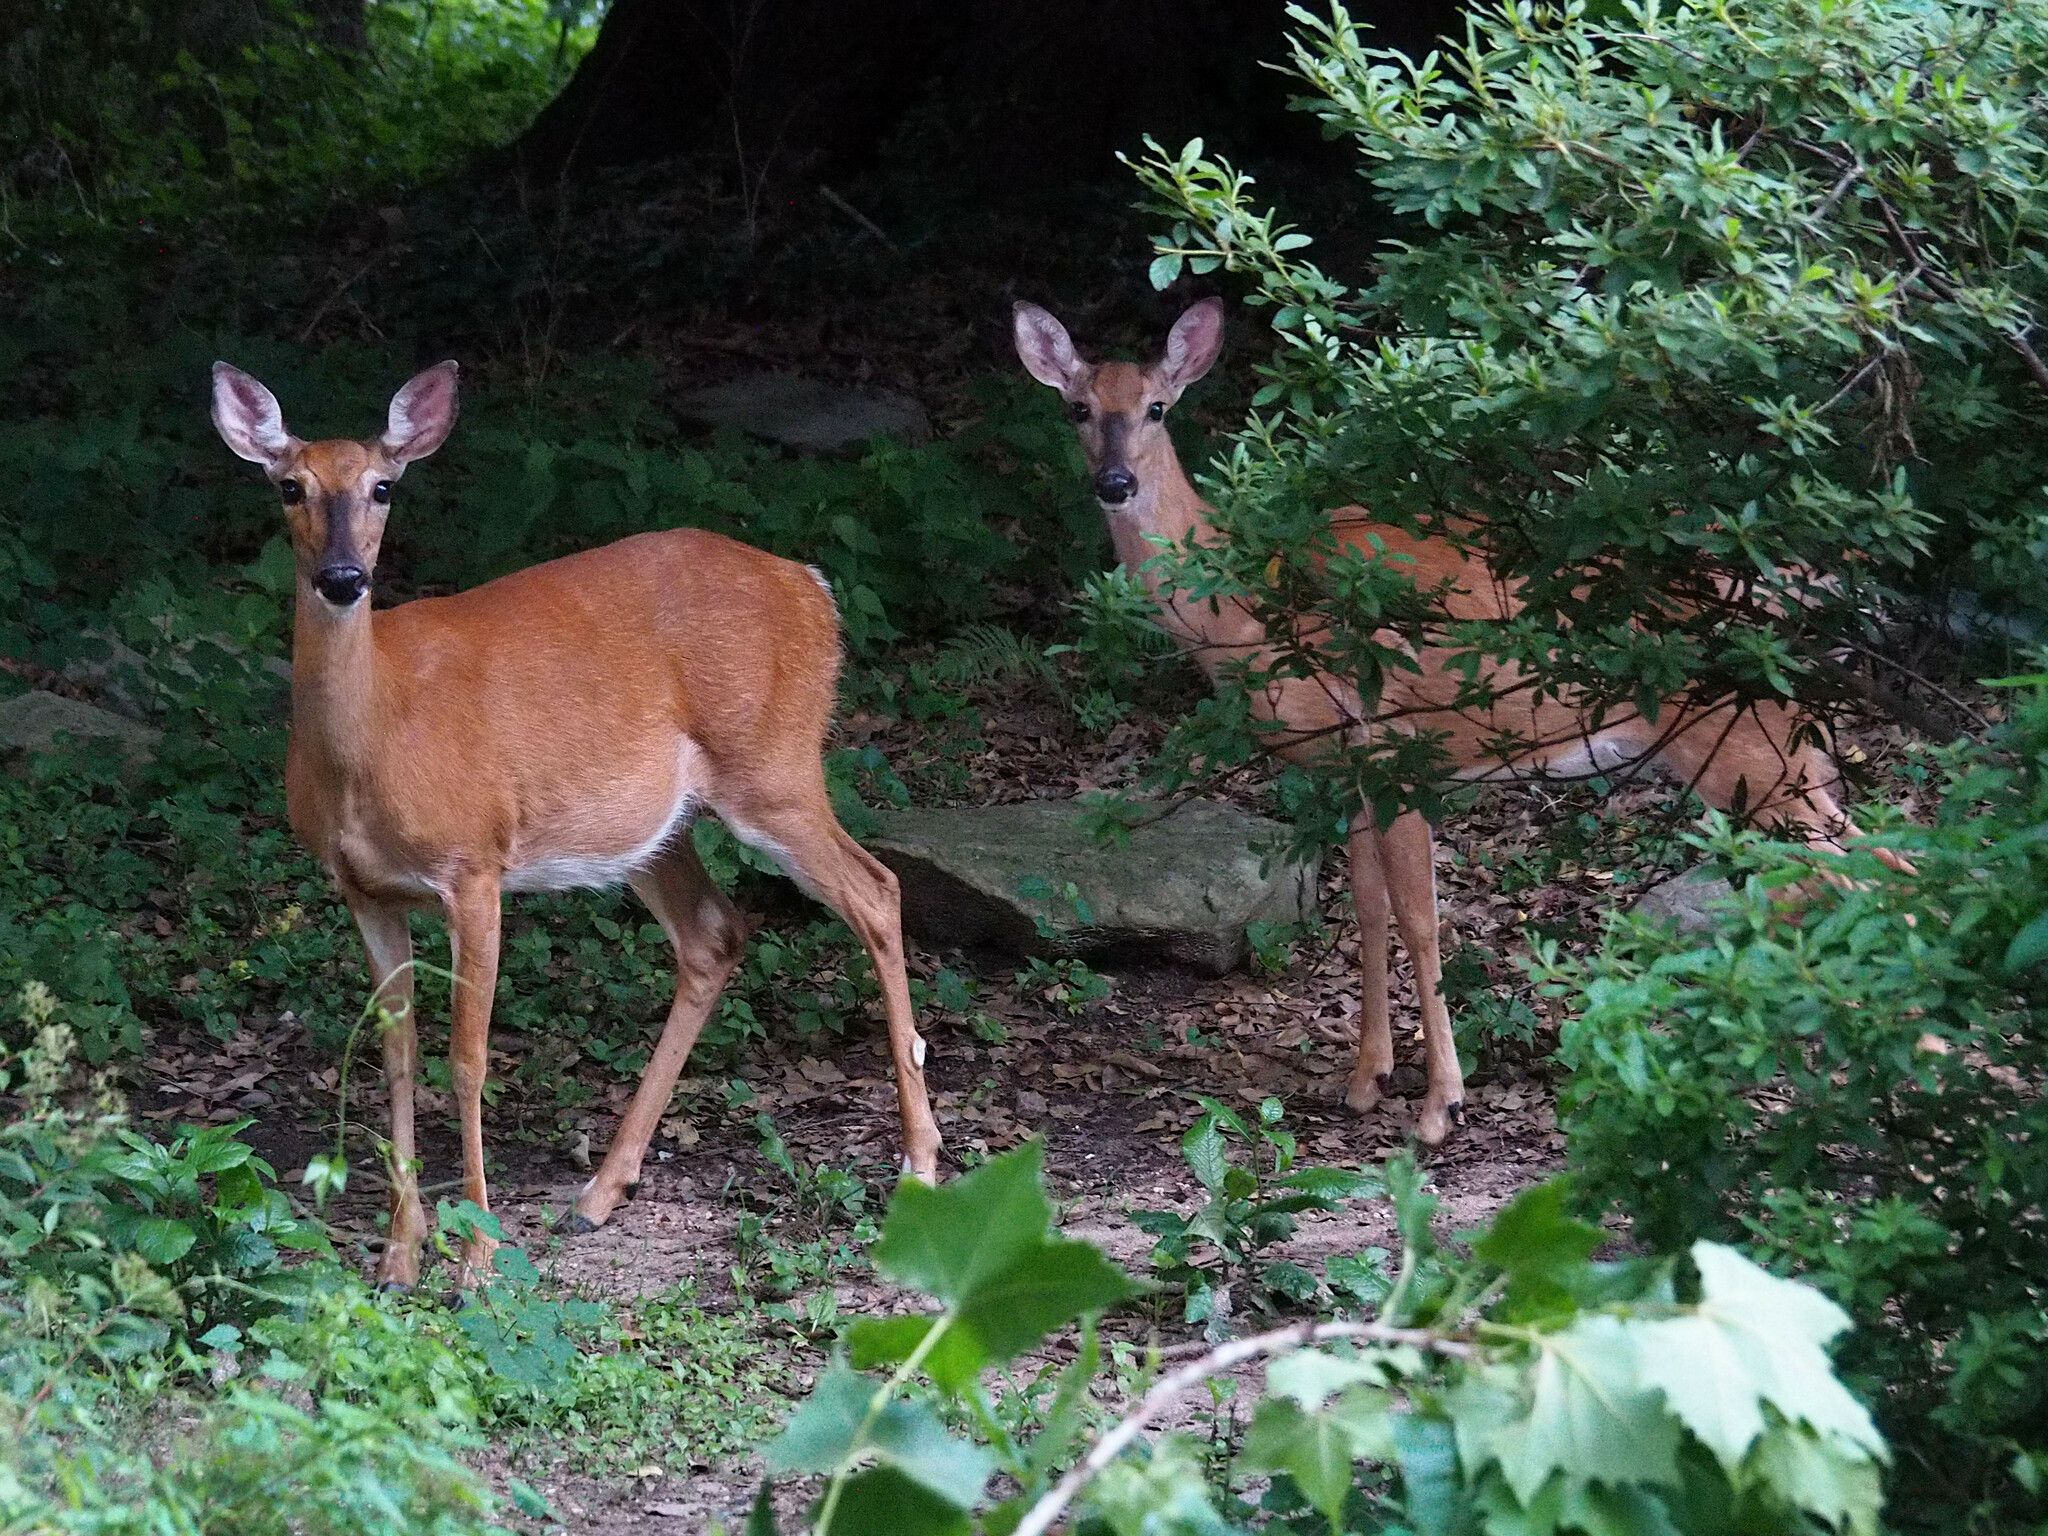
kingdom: Animalia
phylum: Chordata
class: Mammalia
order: Artiodactyla
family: Cervidae
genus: Odocoileus
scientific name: Odocoileus virginianus
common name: White-tailed deer
